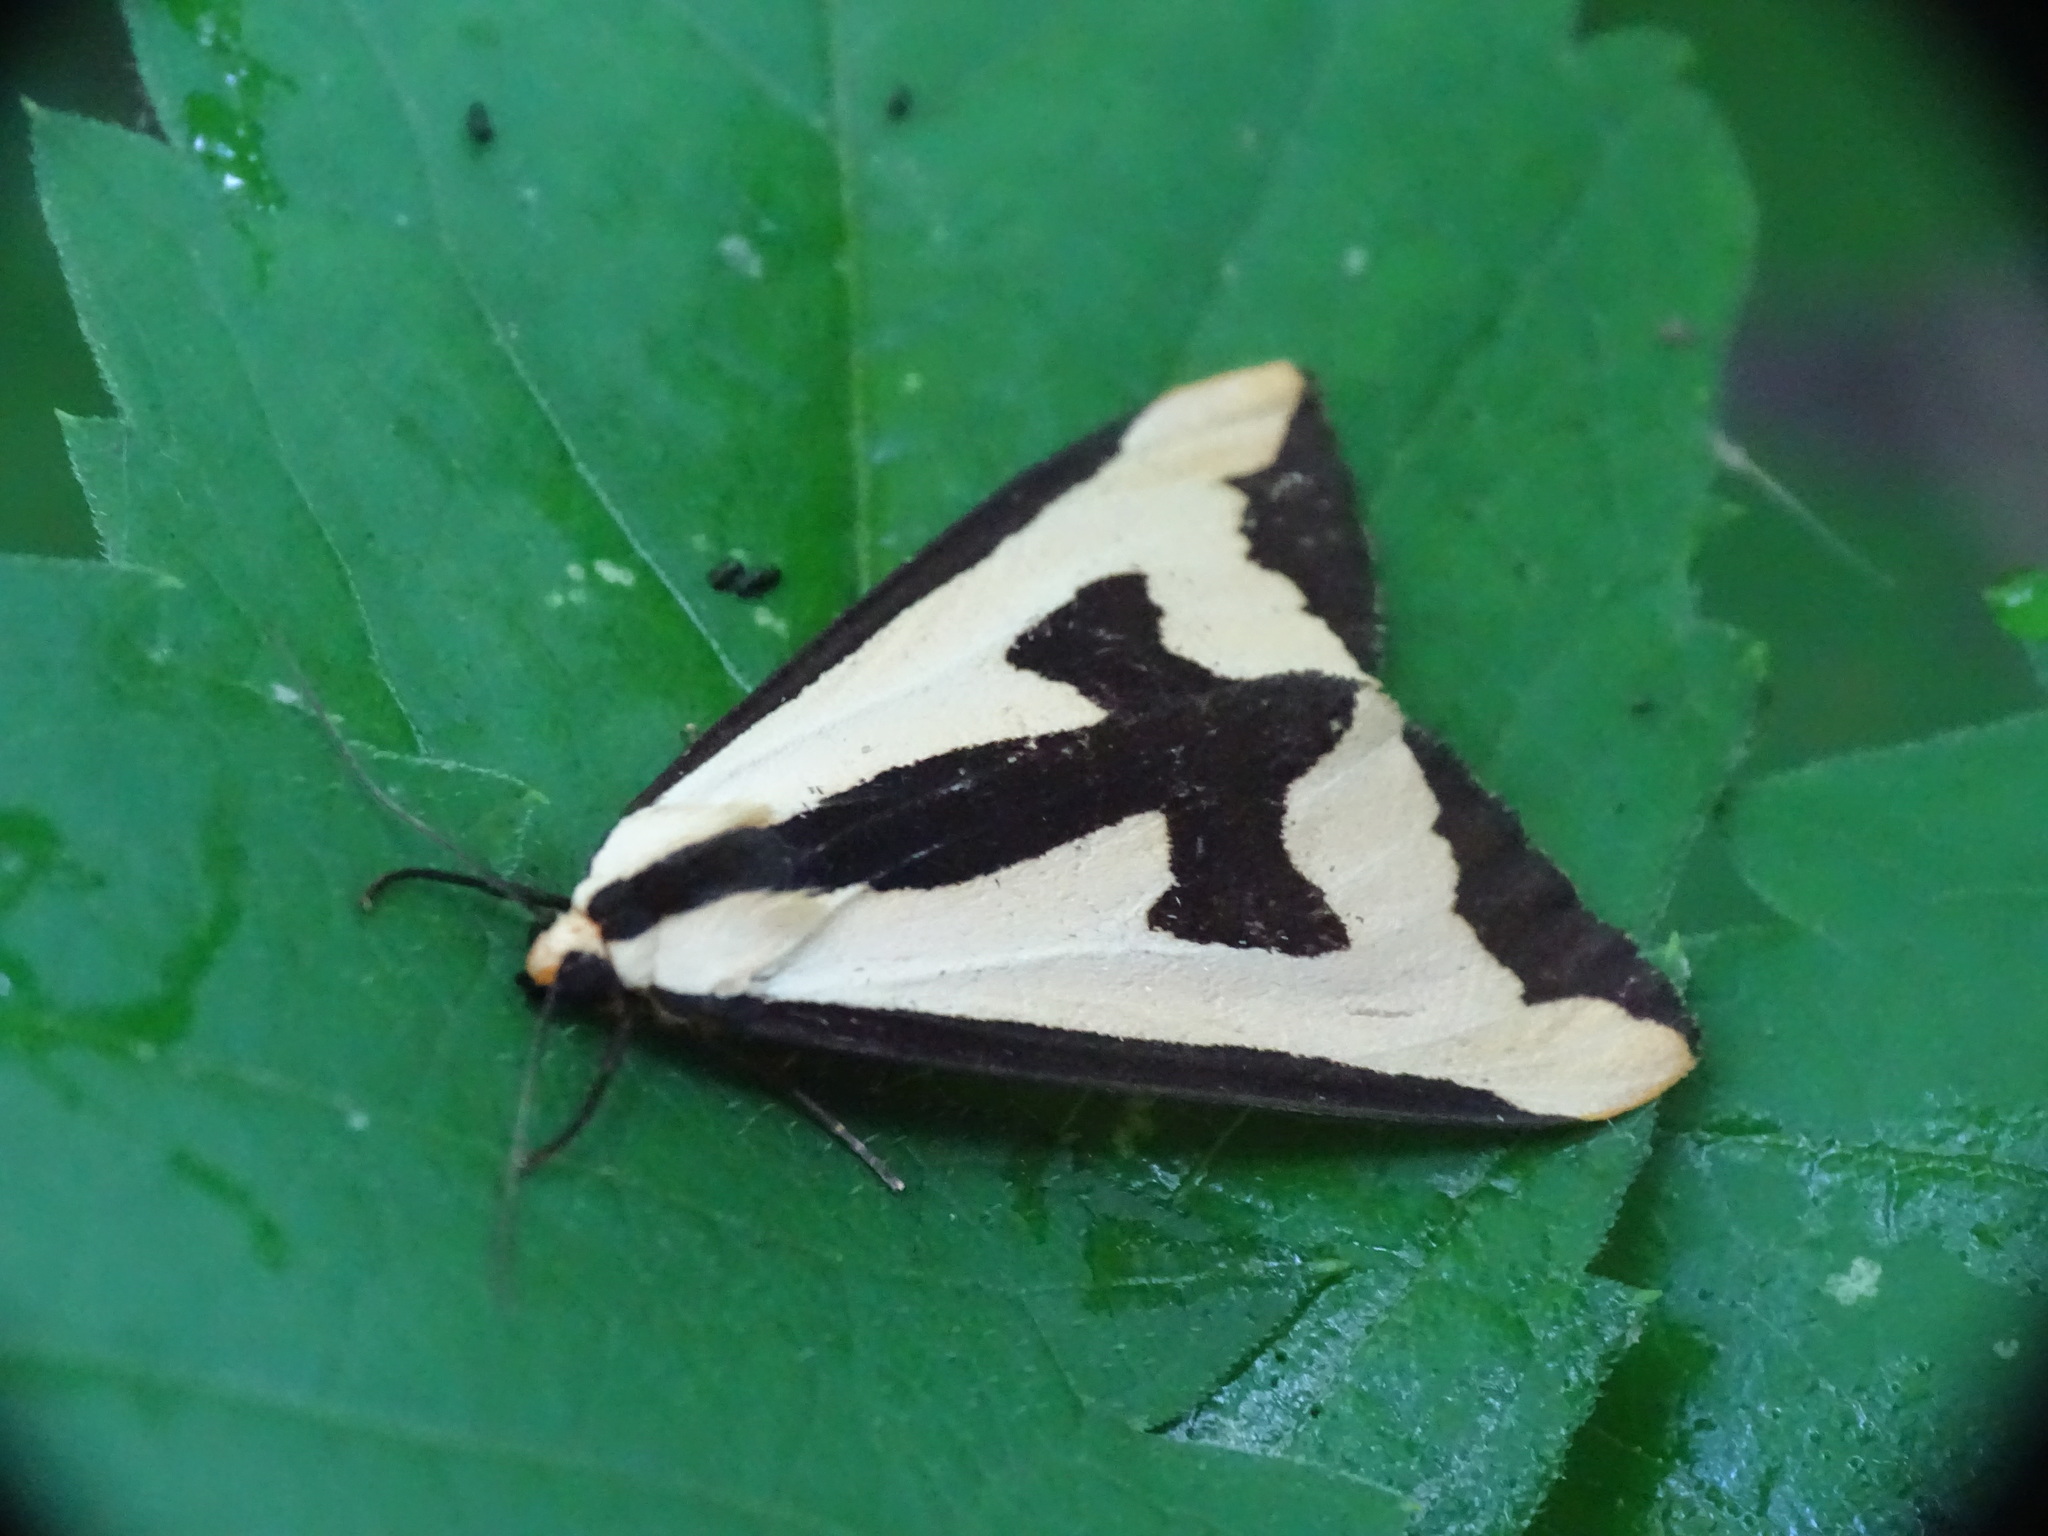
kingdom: Animalia
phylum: Arthropoda
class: Insecta
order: Lepidoptera
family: Erebidae
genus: Haploa
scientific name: Haploa clymene
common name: Clymene moth
